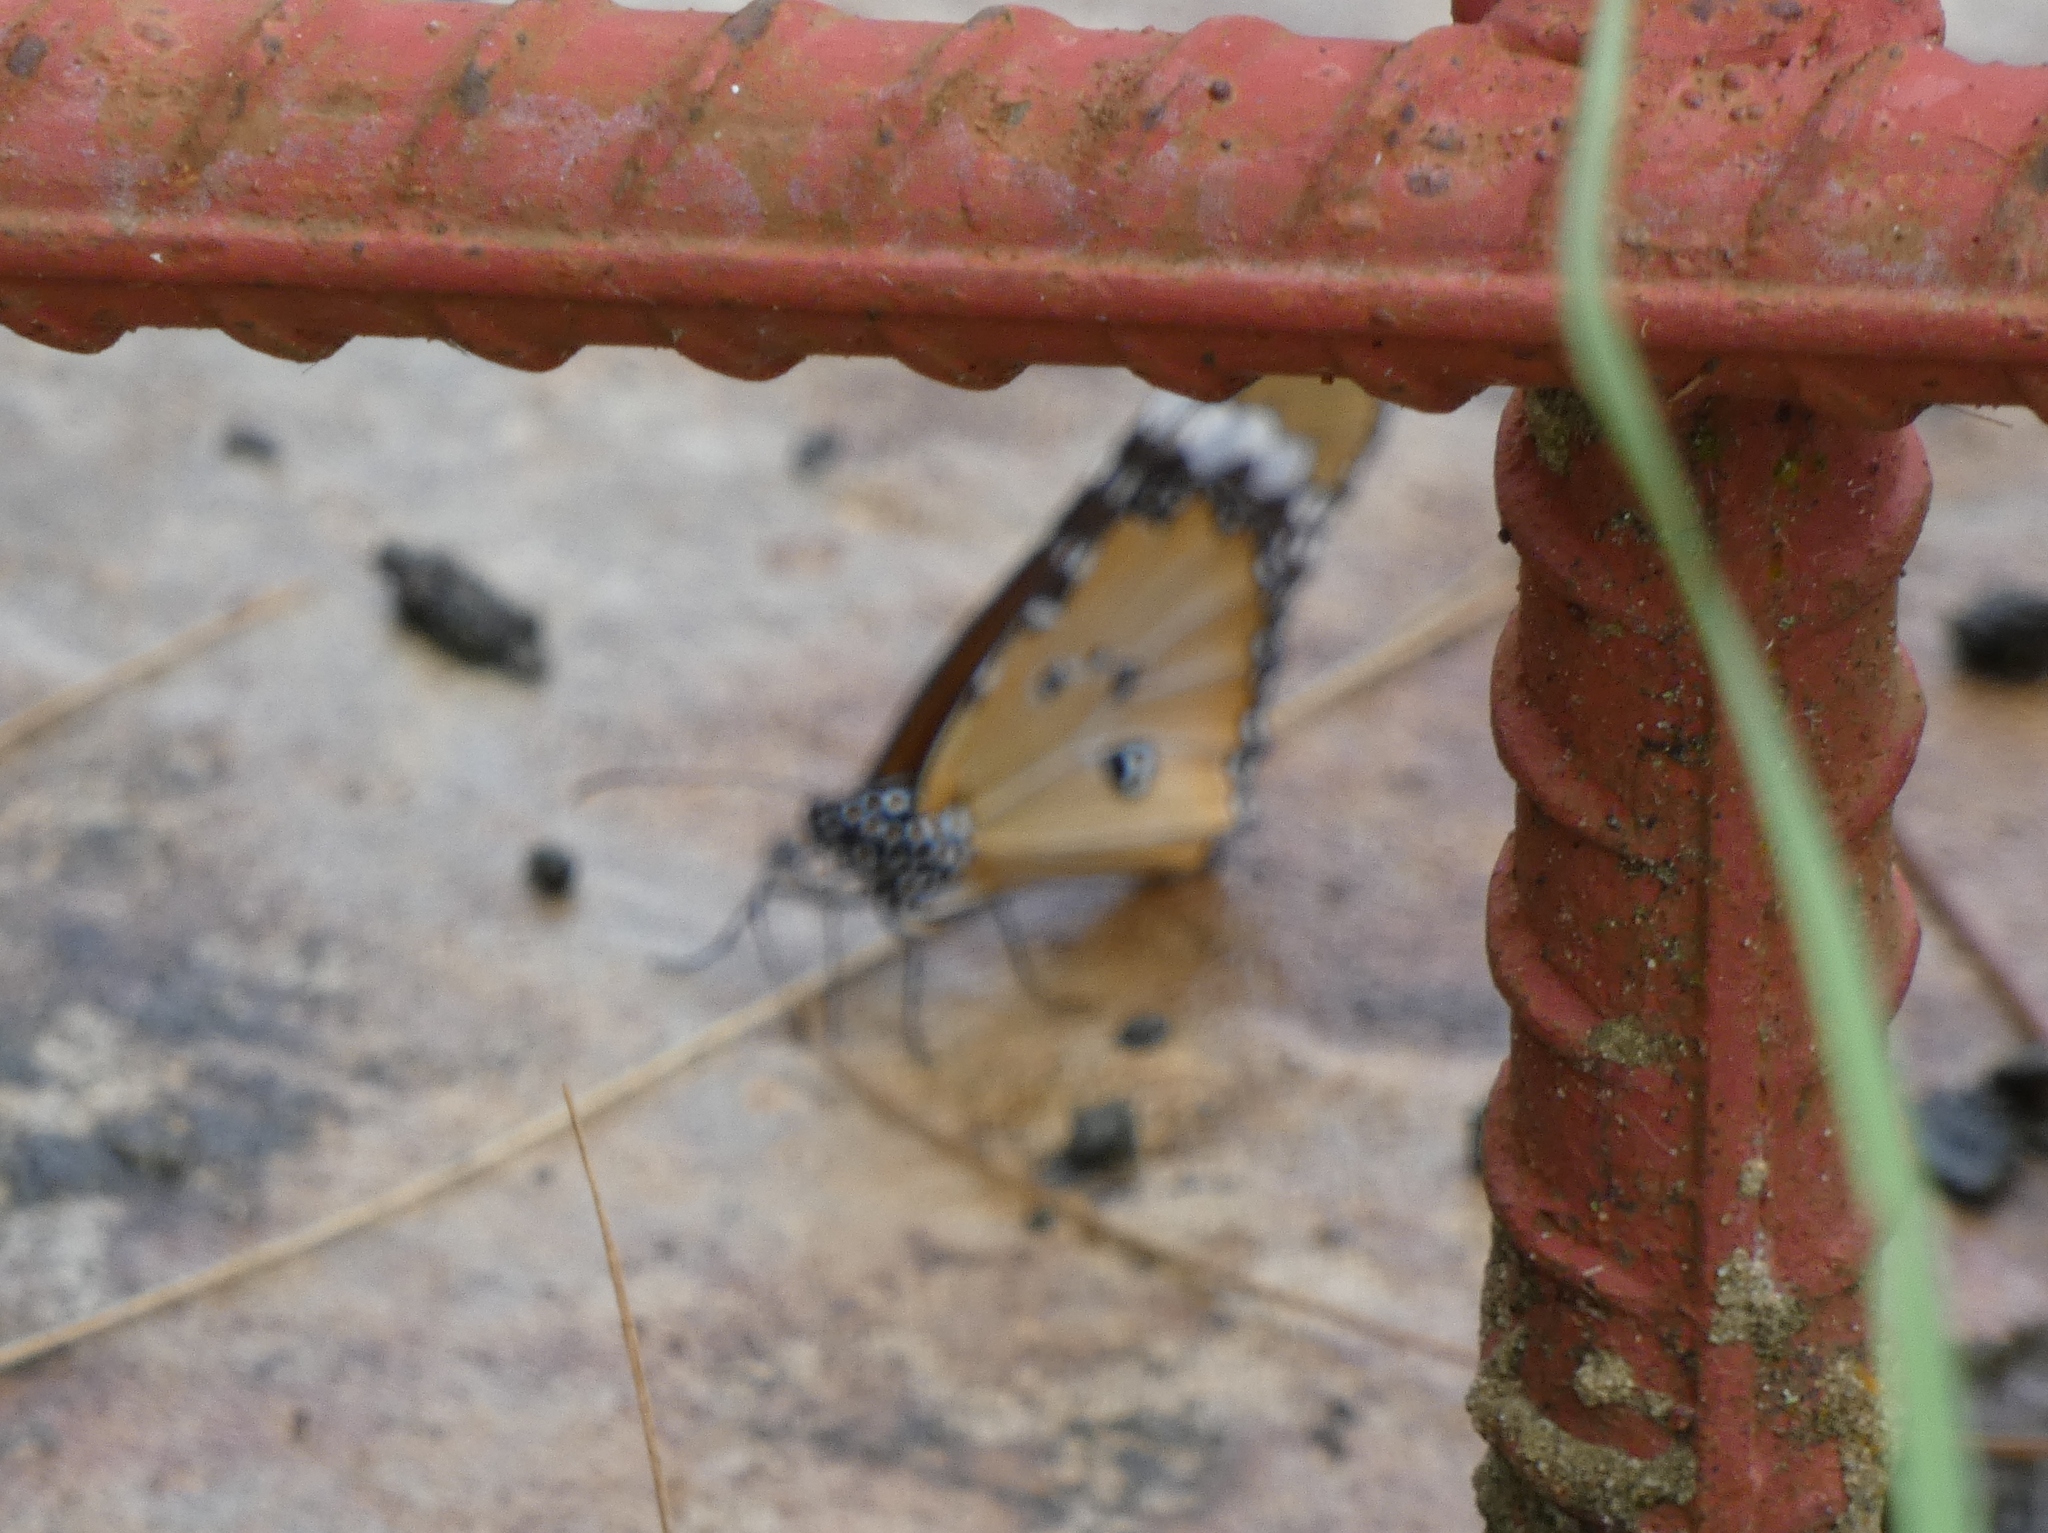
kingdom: Animalia
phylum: Arthropoda
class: Insecta
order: Lepidoptera
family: Nymphalidae
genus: Danaus
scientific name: Danaus chrysippus
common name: Plain tiger
